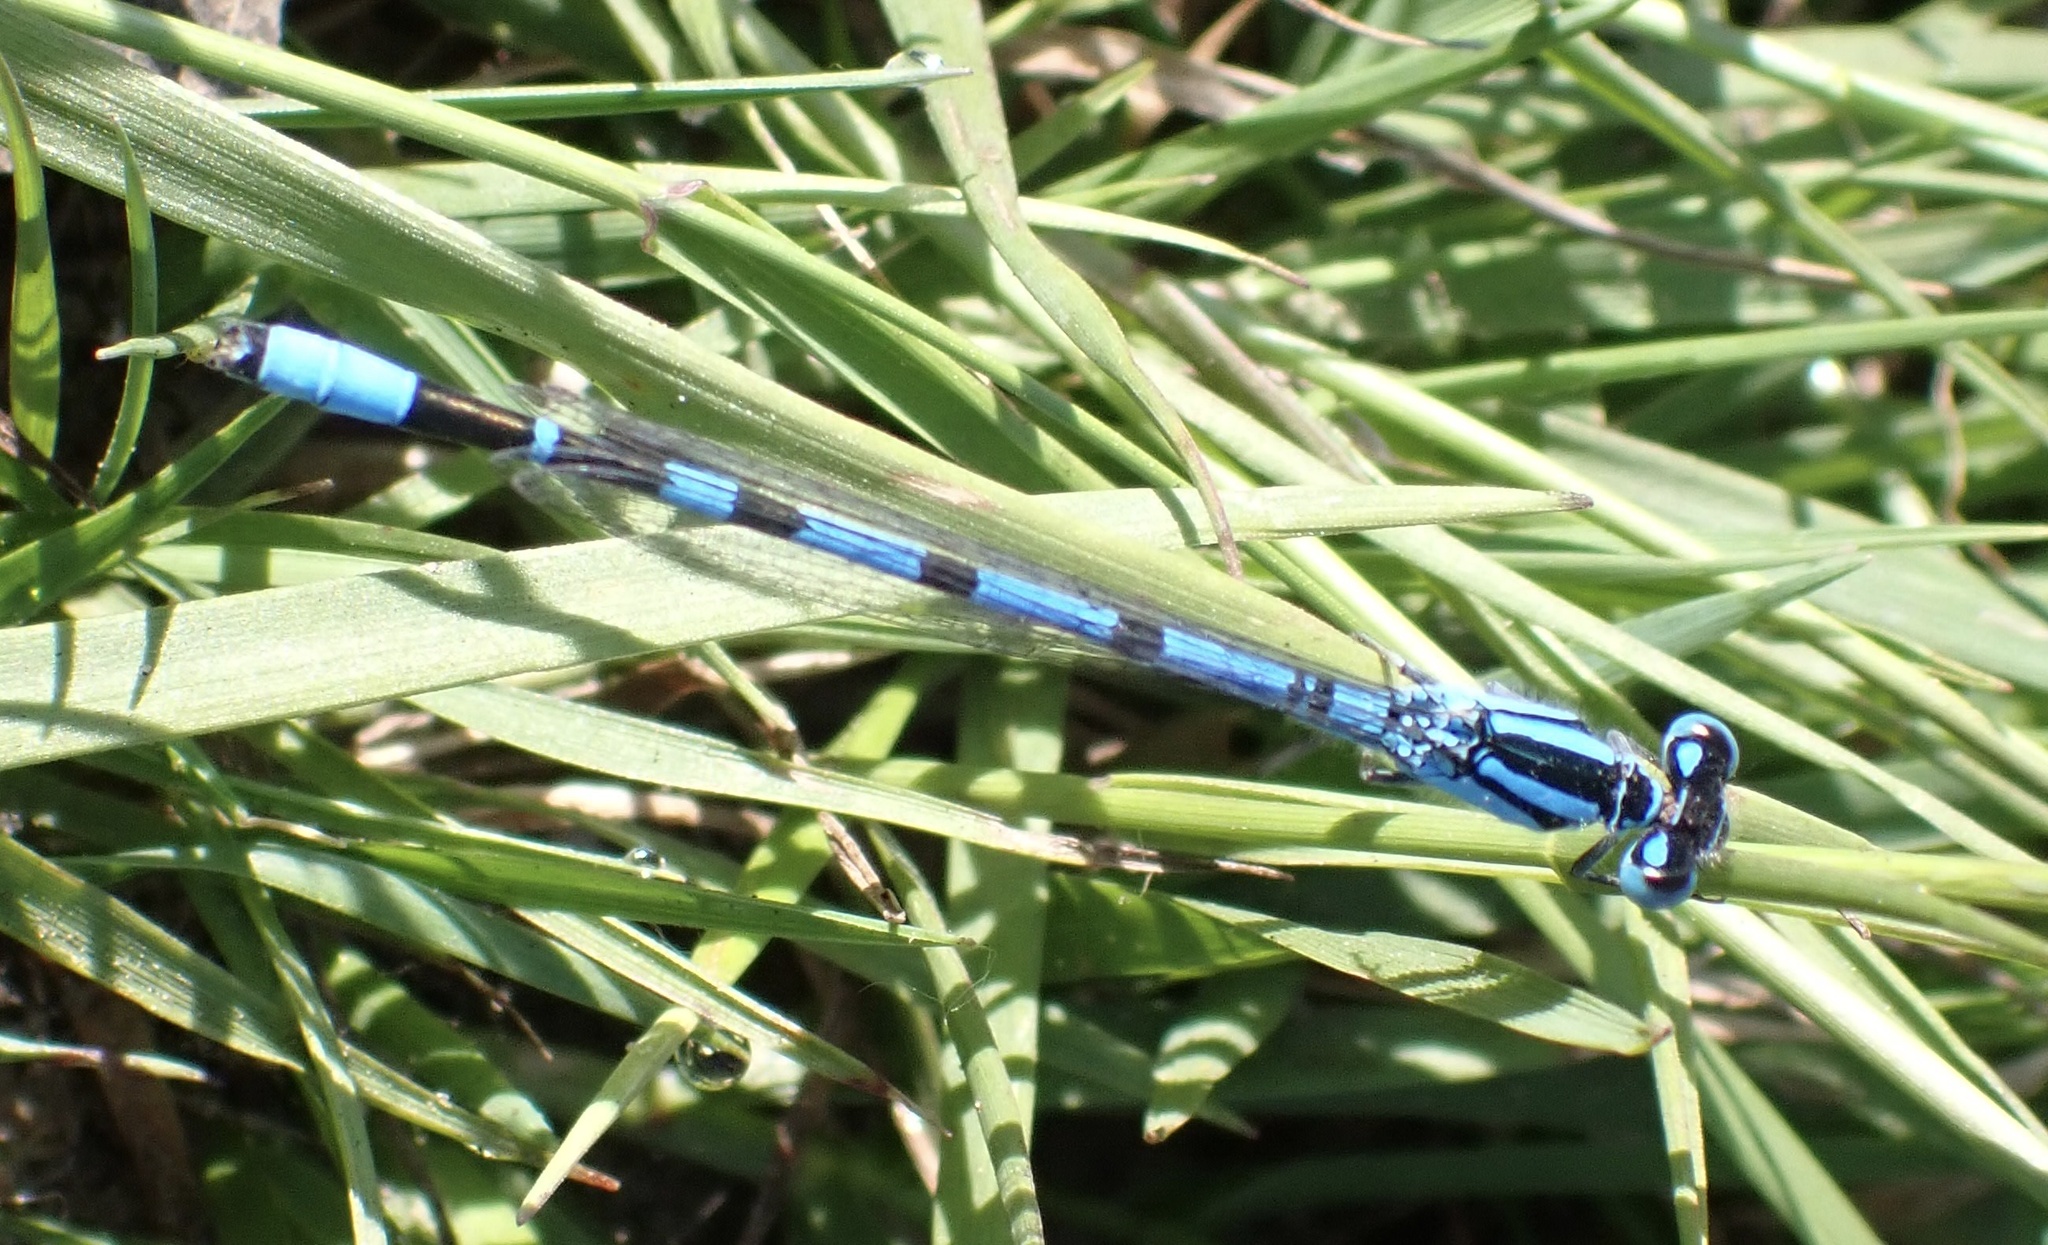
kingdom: Animalia
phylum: Arthropoda
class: Insecta
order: Odonata
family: Coenagrionidae
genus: Enallagma
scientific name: Enallagma cyathigerum
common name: Common blue damselfly
